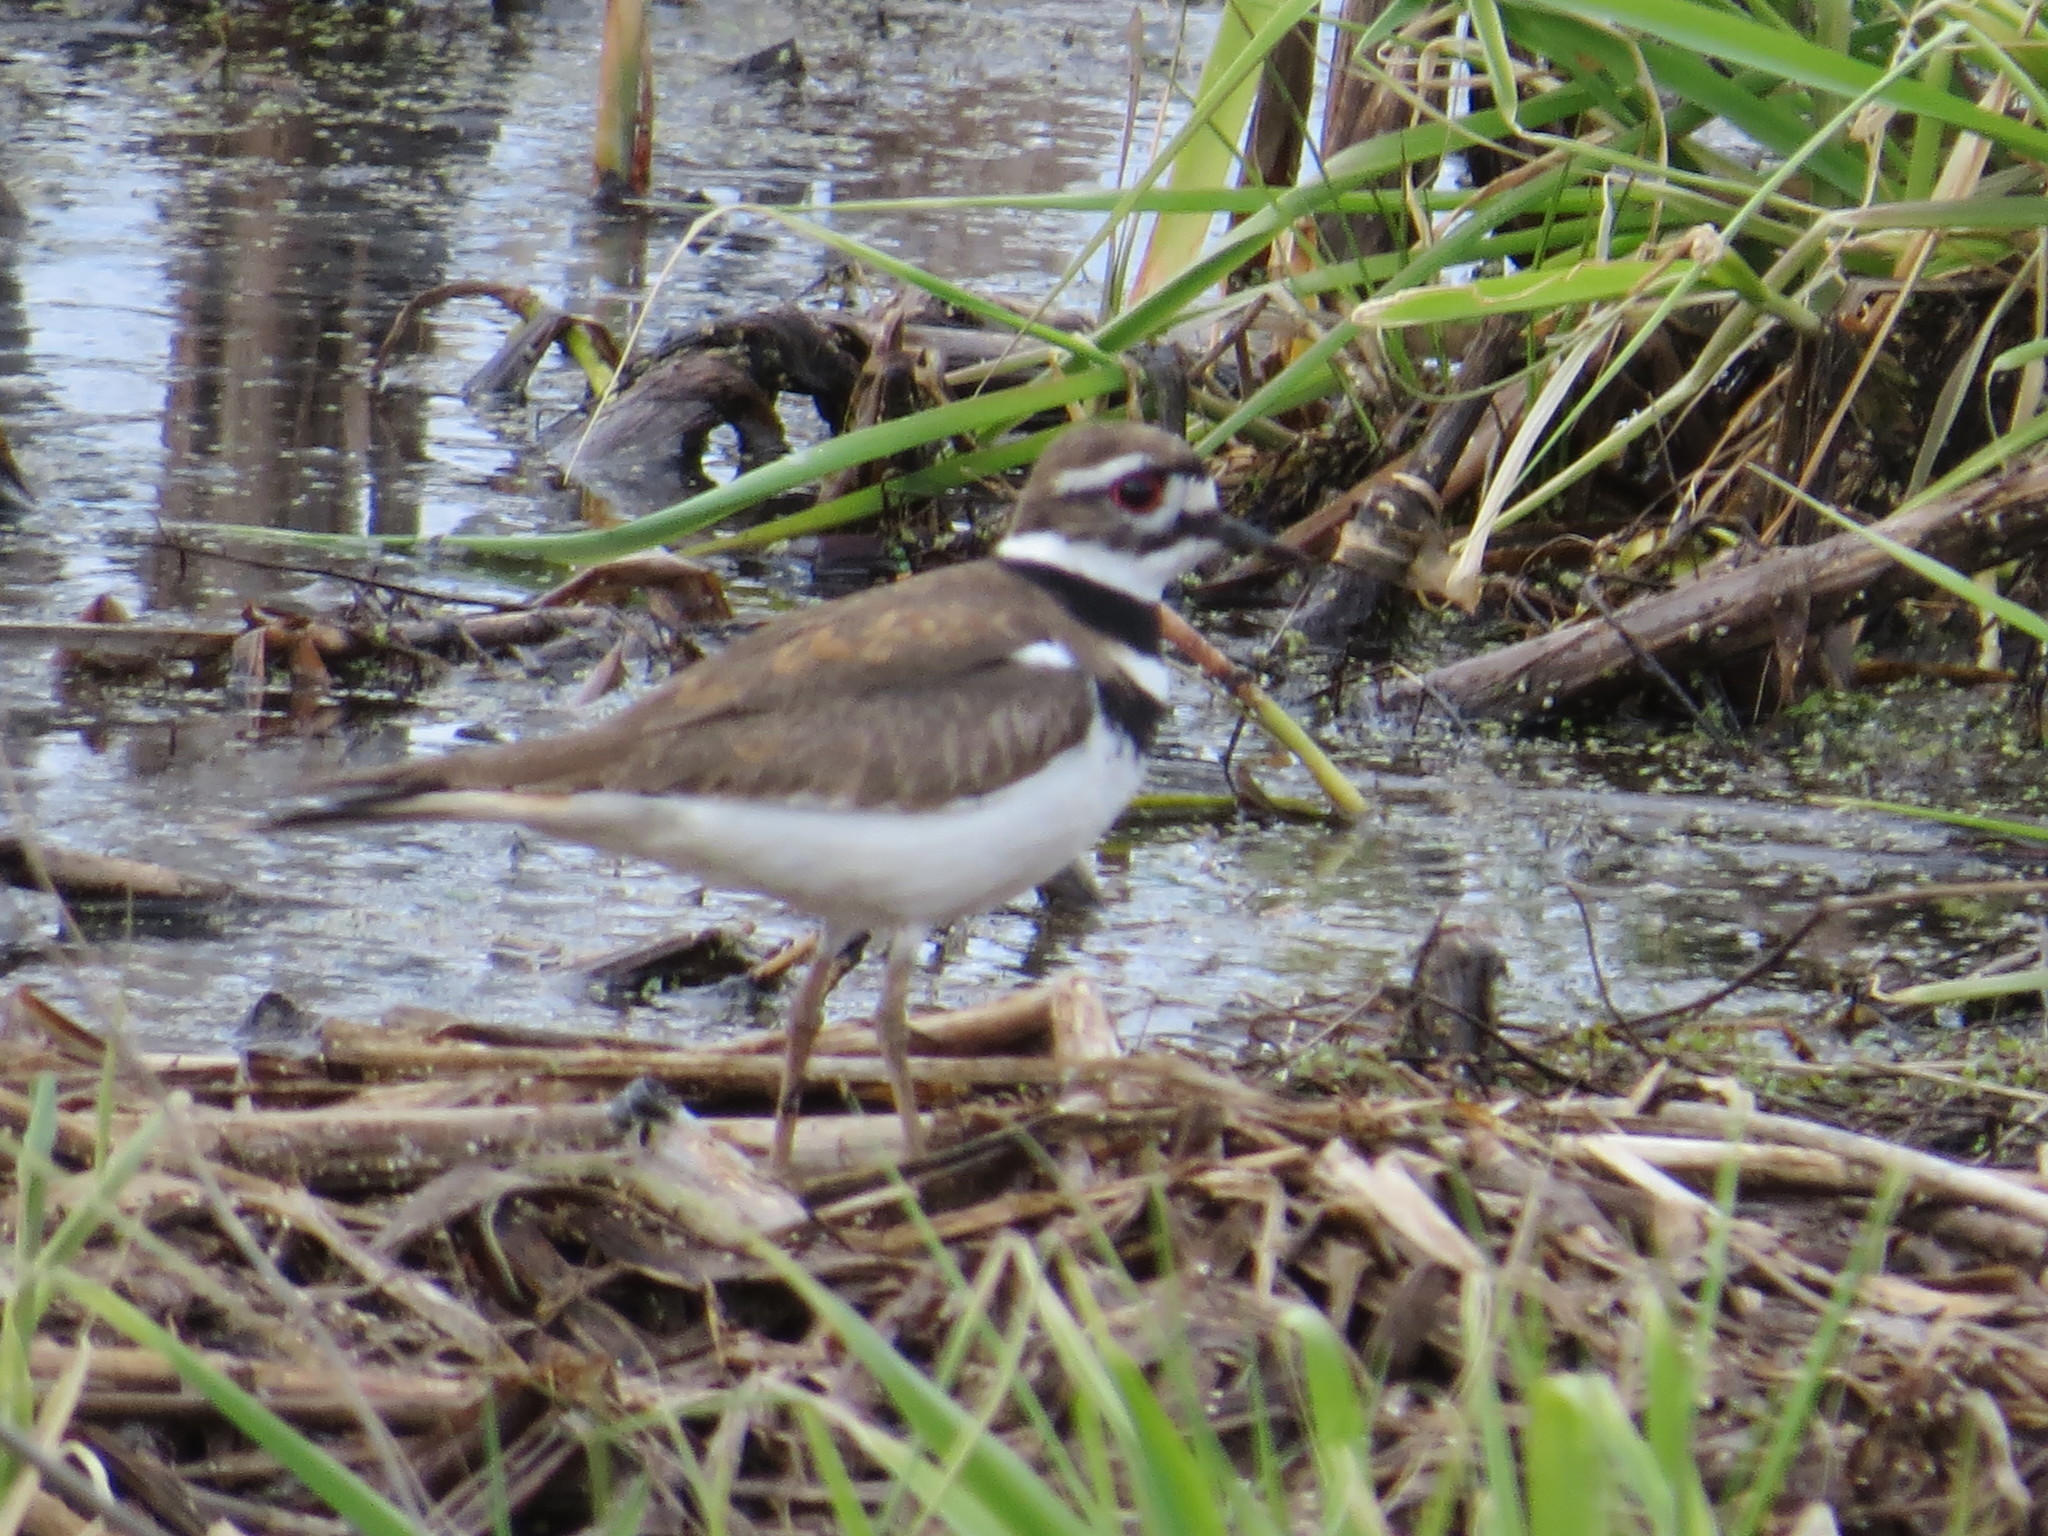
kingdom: Animalia
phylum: Chordata
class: Aves
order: Charadriiformes
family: Charadriidae
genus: Charadrius
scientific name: Charadrius vociferus
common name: Killdeer
